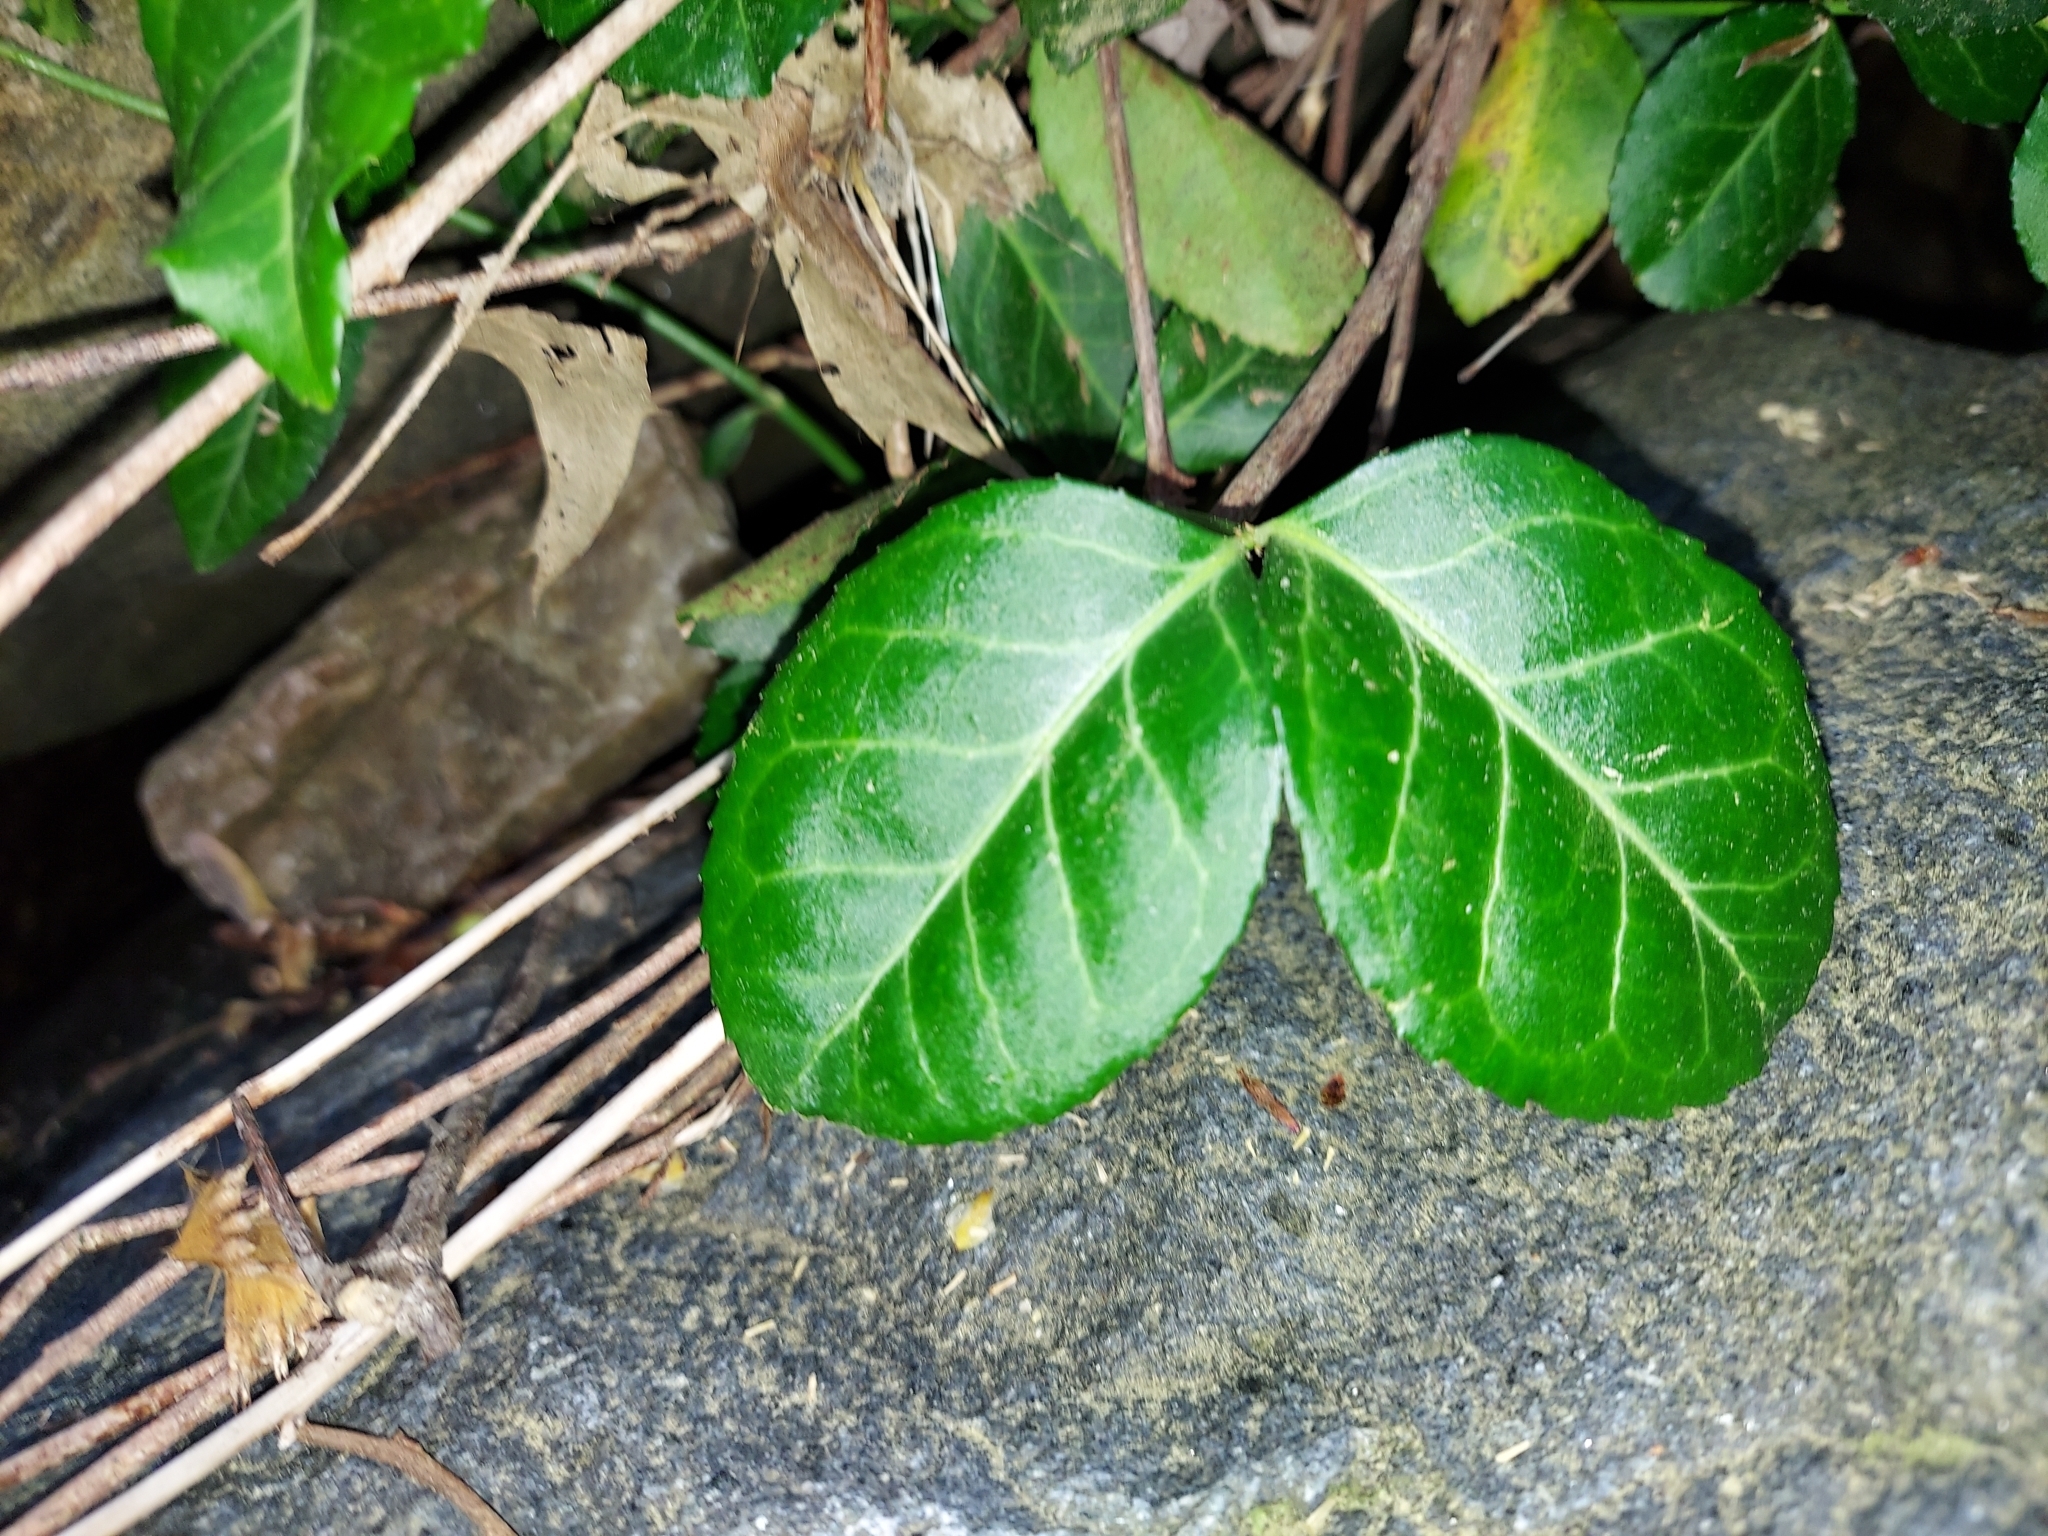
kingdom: Plantae
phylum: Tracheophyta
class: Magnoliopsida
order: Celastrales
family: Celastraceae
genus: Euonymus
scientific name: Euonymus fortunei
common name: Climbing euonymus
